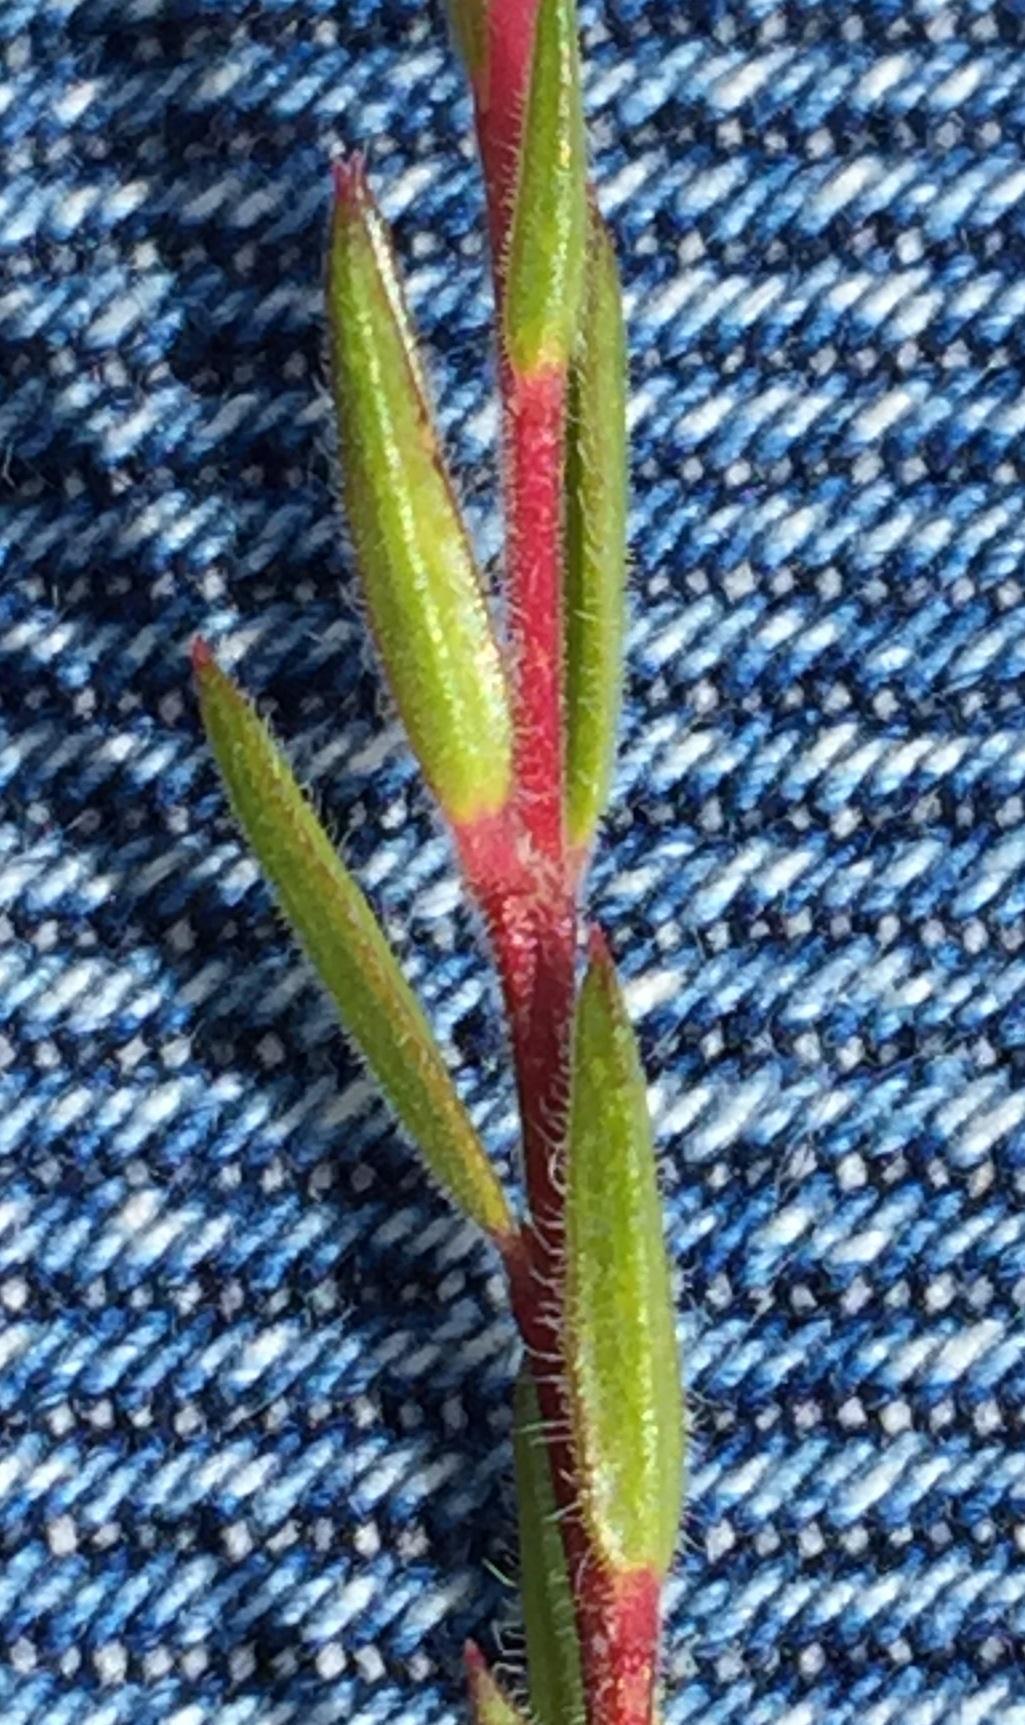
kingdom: Plantae
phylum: Tracheophyta
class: Magnoliopsida
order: Sapindales
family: Rutaceae
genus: Acmadenia
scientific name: Acmadenia gracilis
